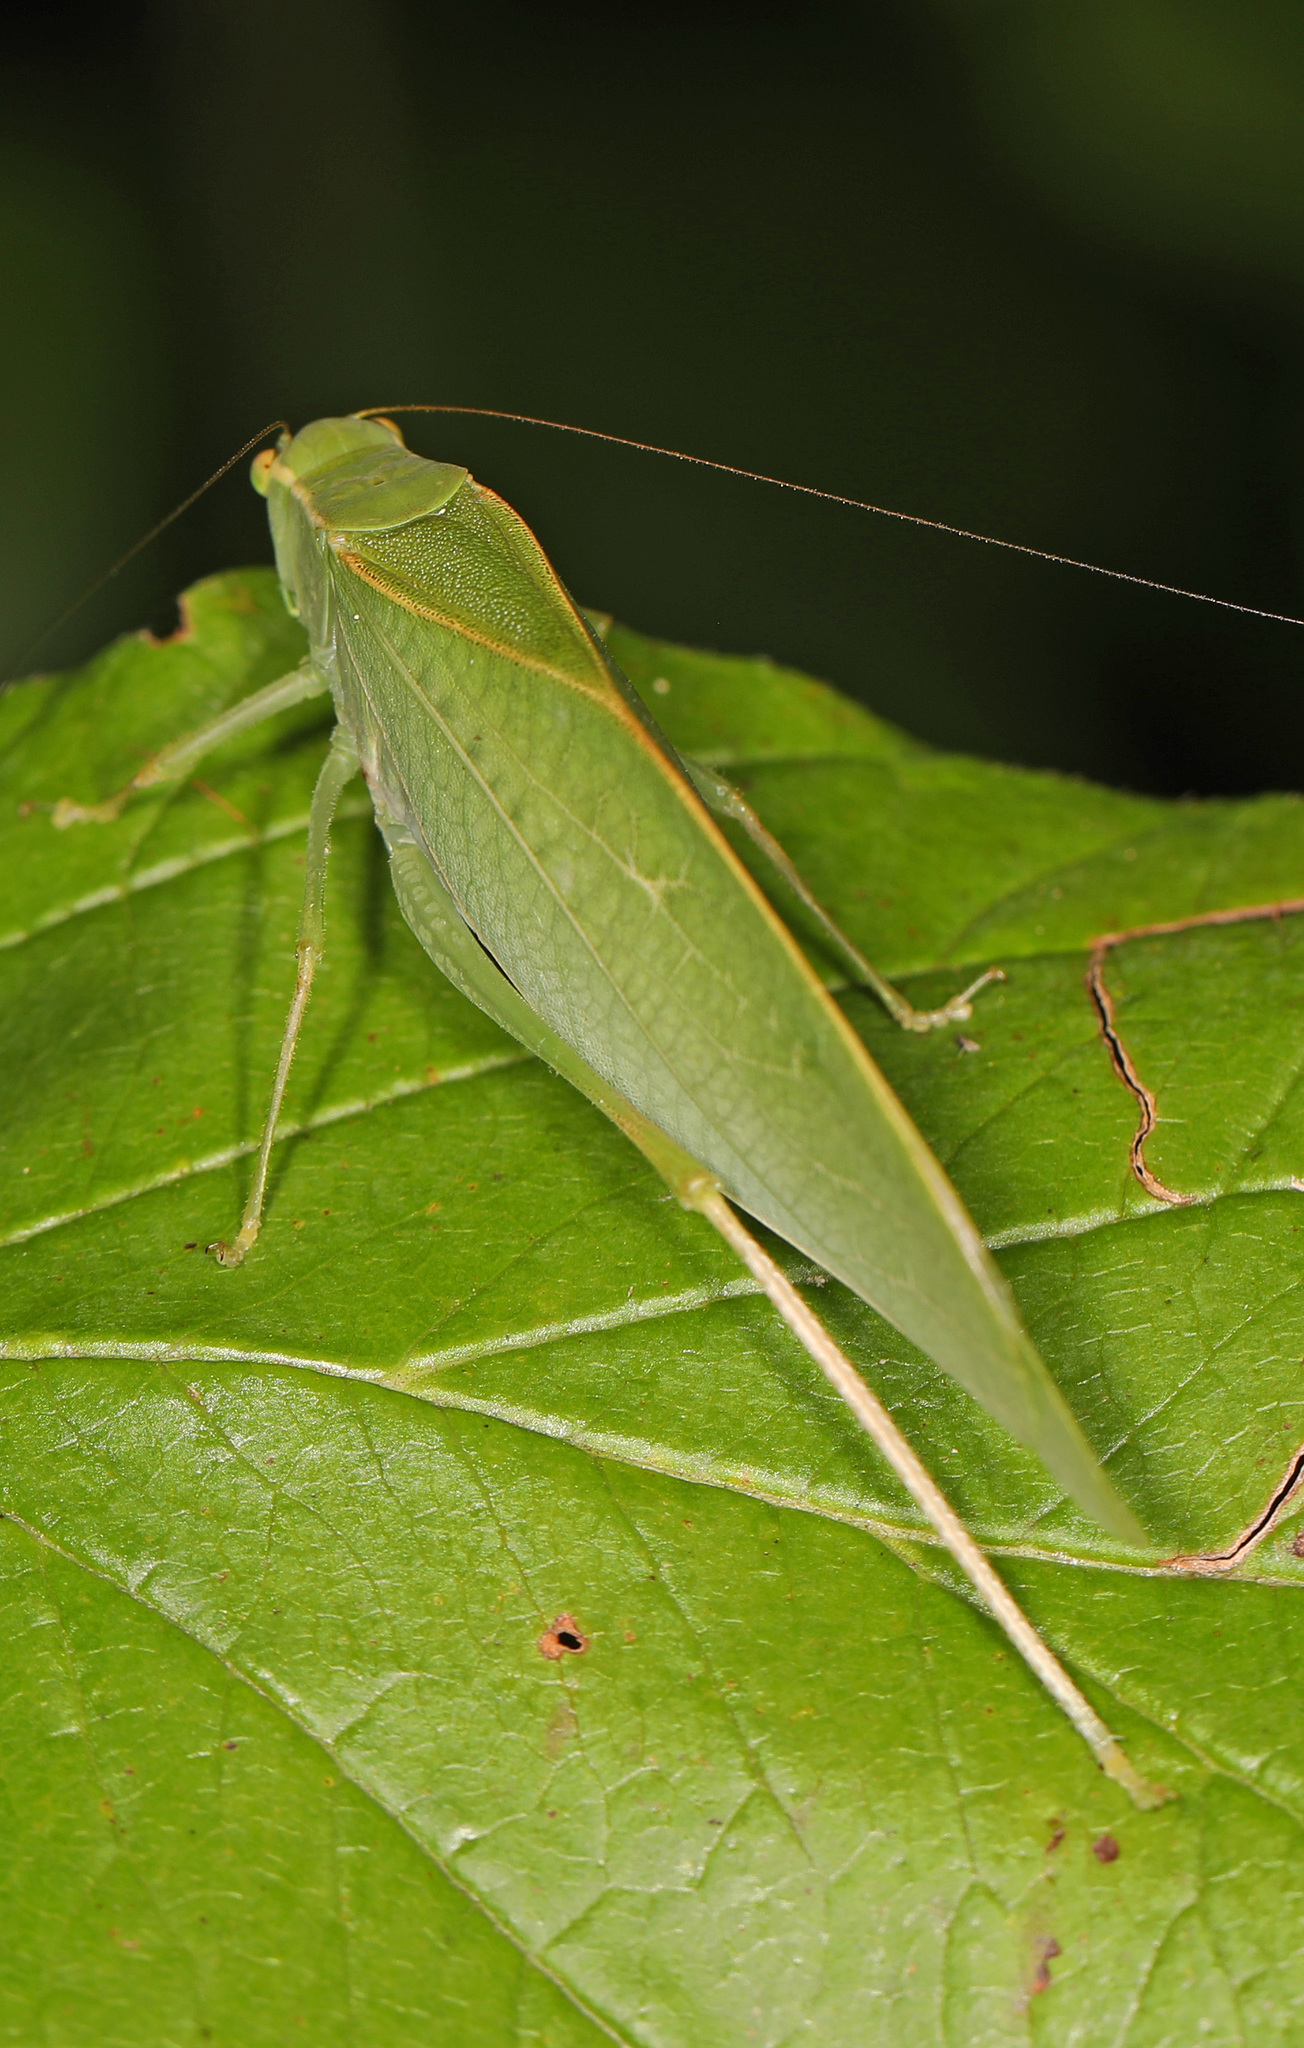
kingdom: Animalia
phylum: Arthropoda
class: Insecta
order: Orthoptera
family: Tettigoniidae
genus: Microcentrum
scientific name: Microcentrum retinerve
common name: Angular-winged katydid
